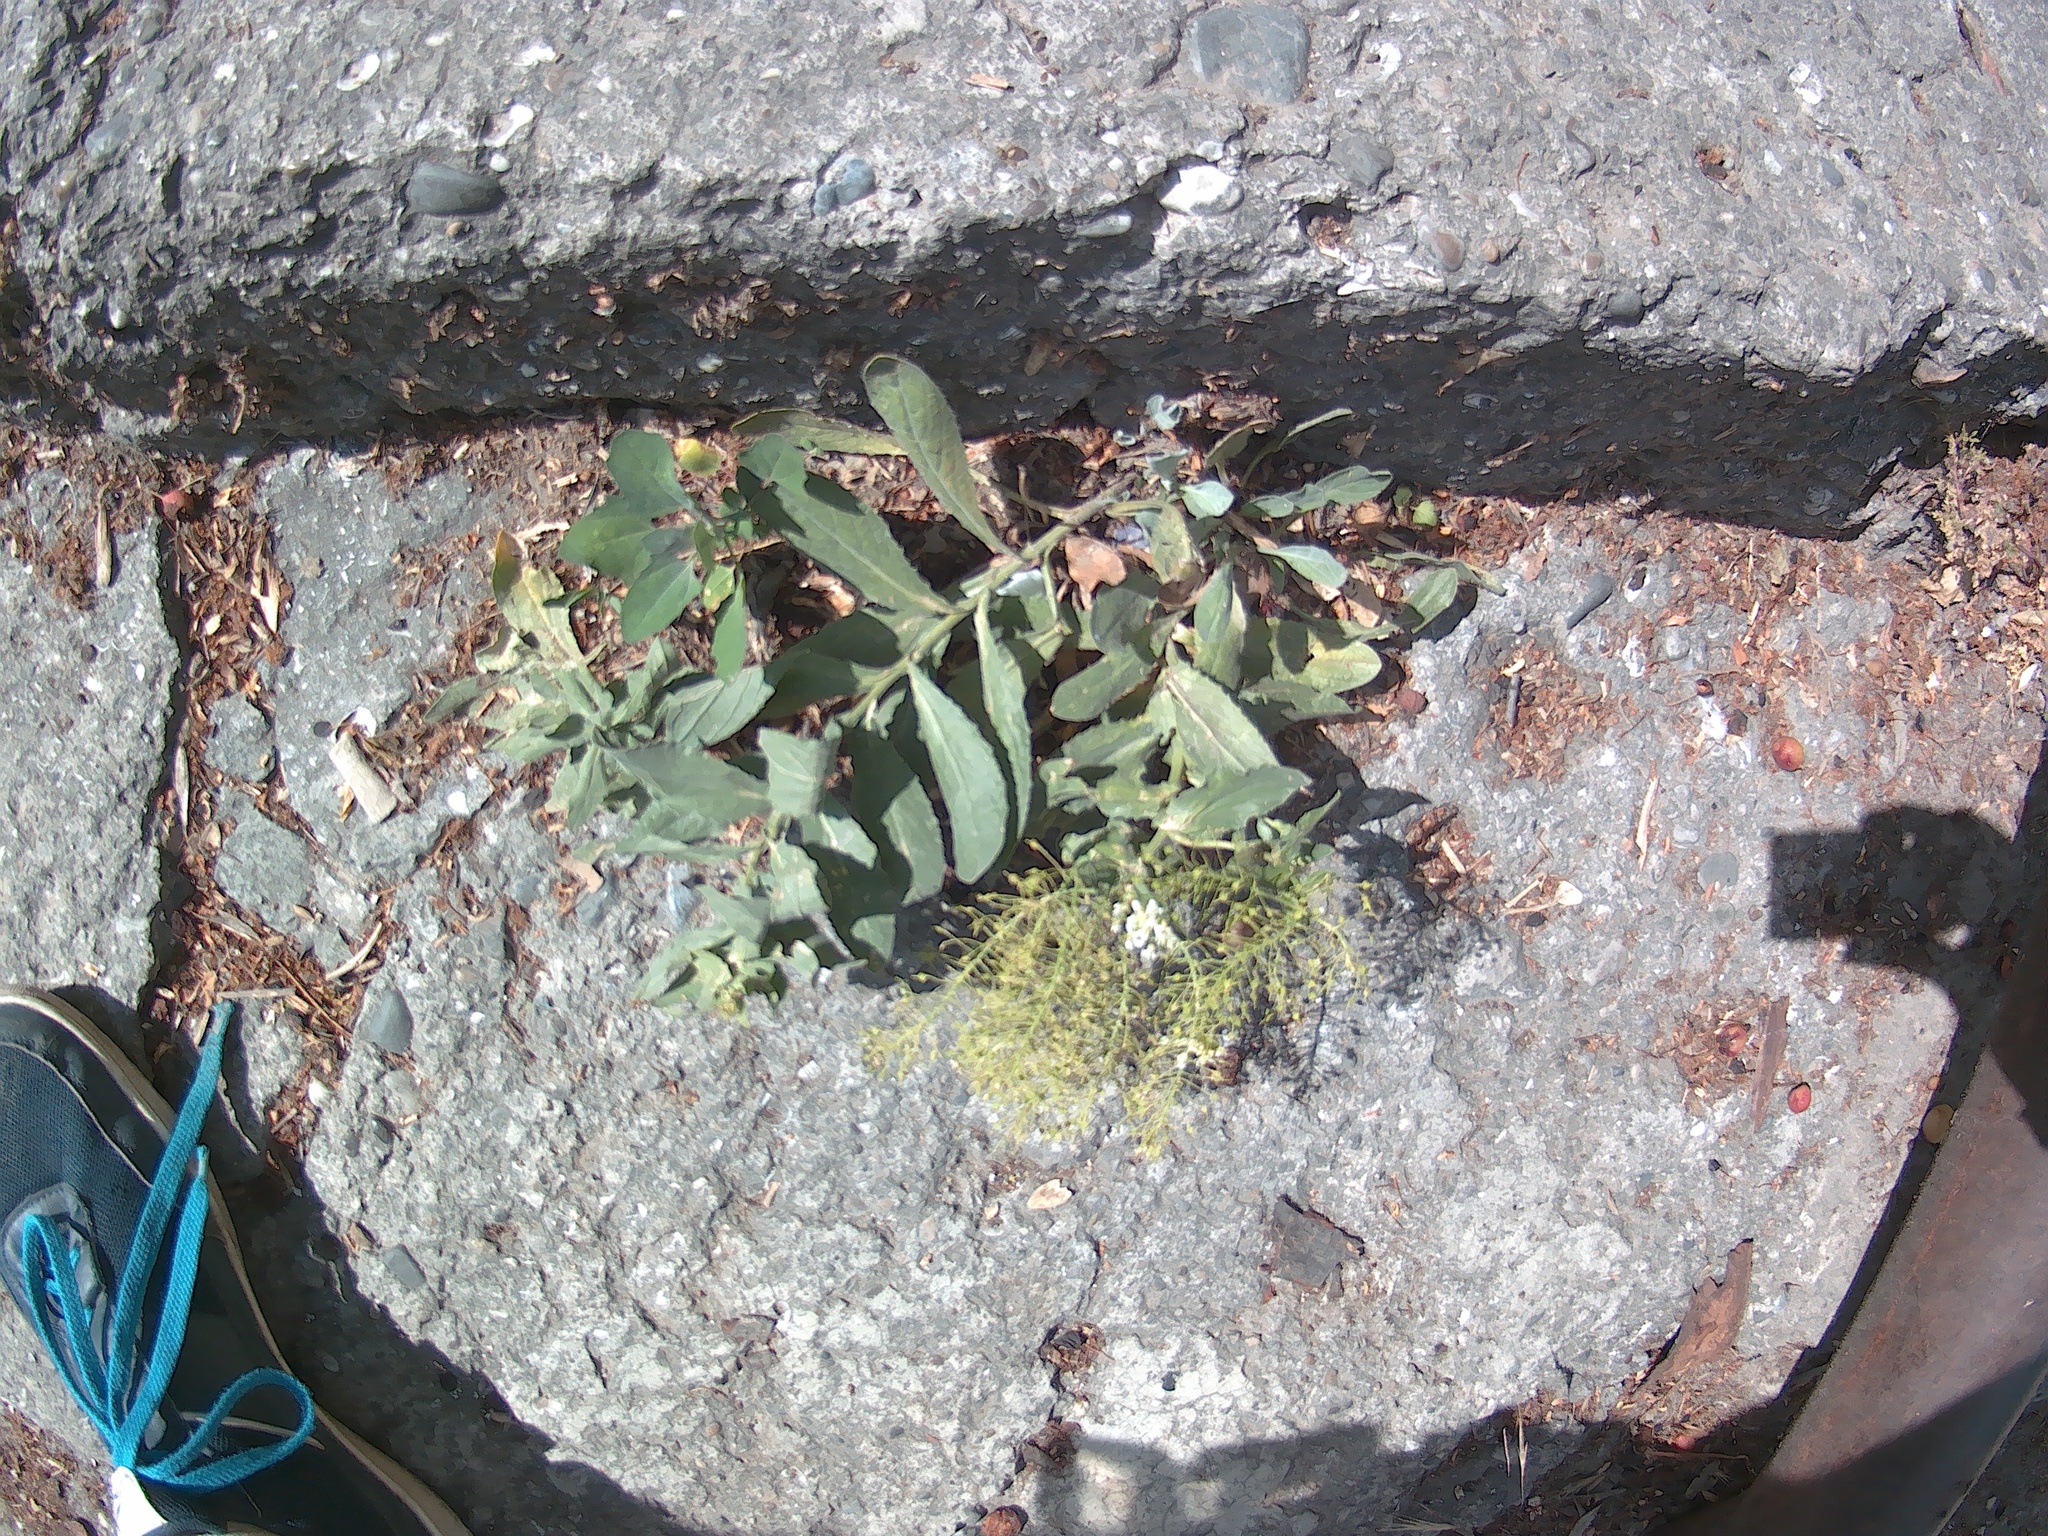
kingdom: Plantae
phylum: Tracheophyta
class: Magnoliopsida
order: Brassicales
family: Brassicaceae
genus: Lepidium
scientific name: Lepidium draba
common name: Hoary cress
